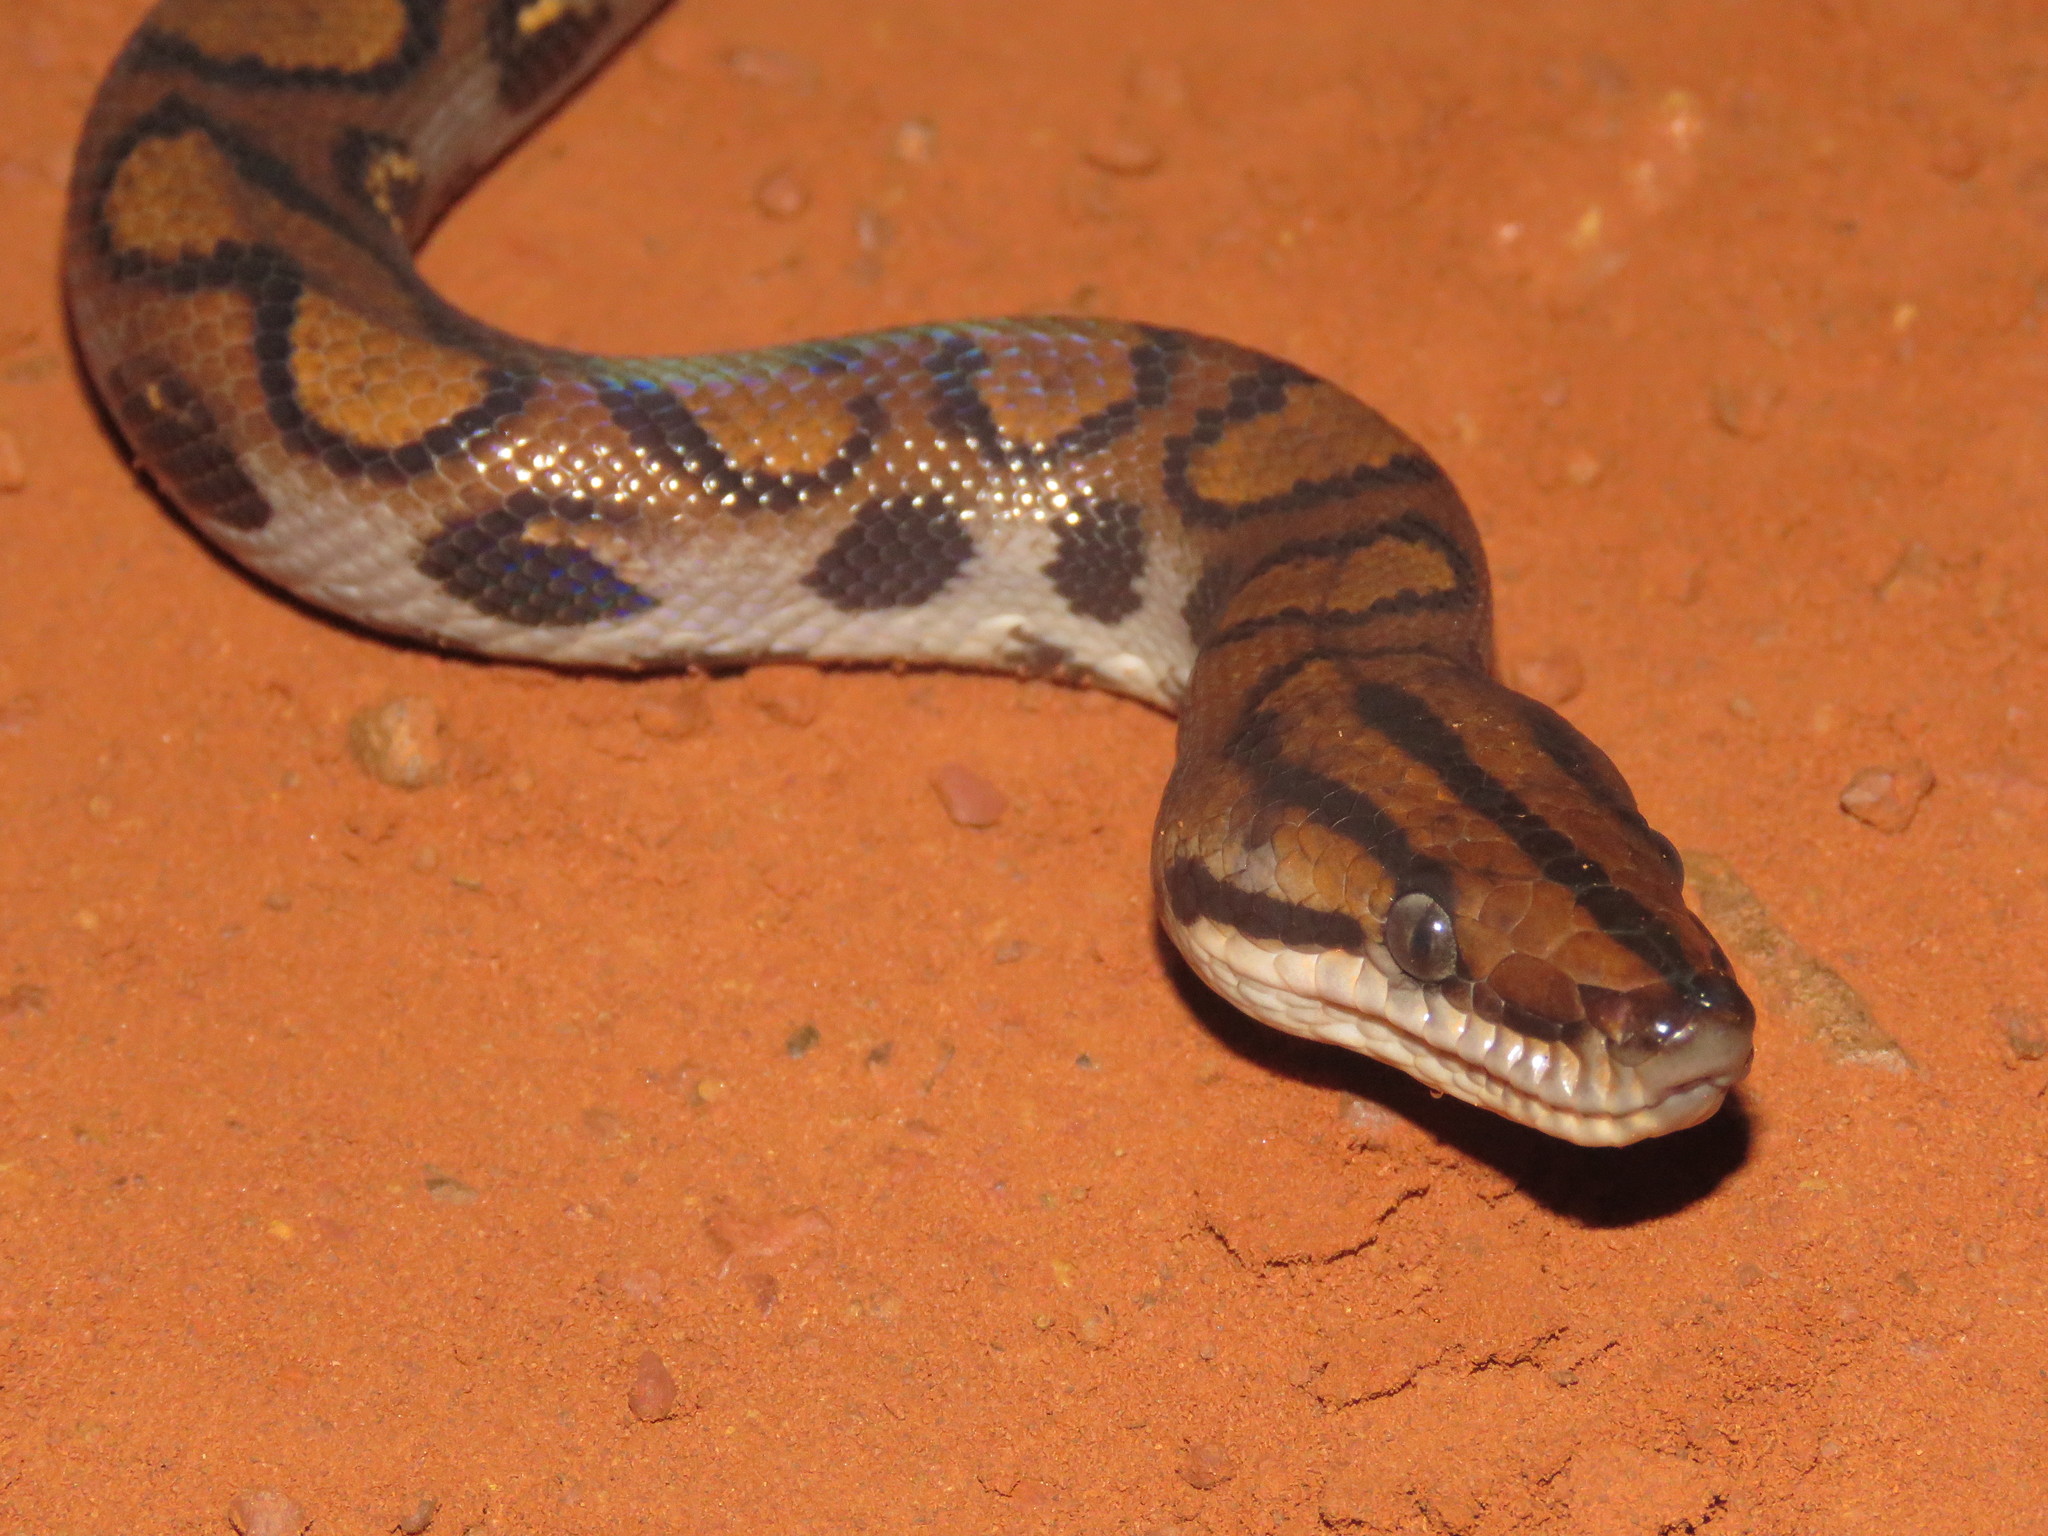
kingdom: Animalia
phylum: Chordata
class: Squamata
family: Boidae
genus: Epicrates
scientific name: Epicrates cenchria
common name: Rainbow boa
